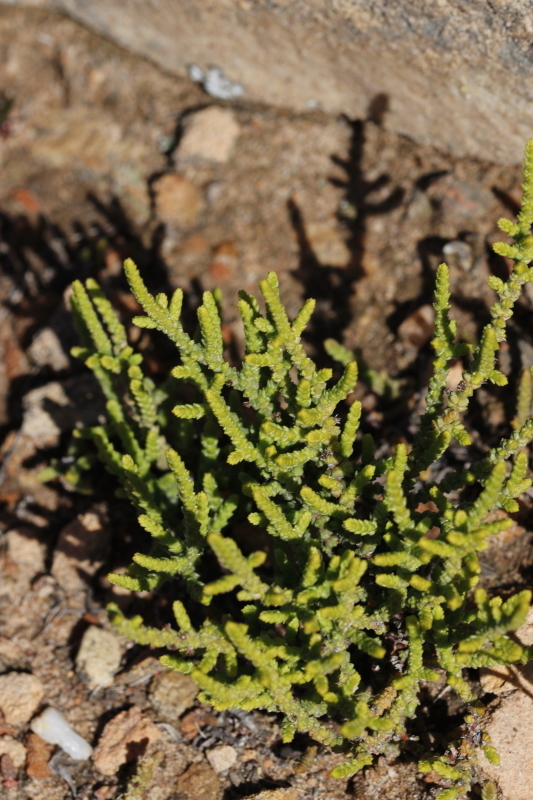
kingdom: Plantae
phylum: Tracheophyta
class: Magnoliopsida
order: Saxifragales
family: Crassulaceae
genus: Crassula
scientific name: Crassula muscosa
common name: Toy-cypress
